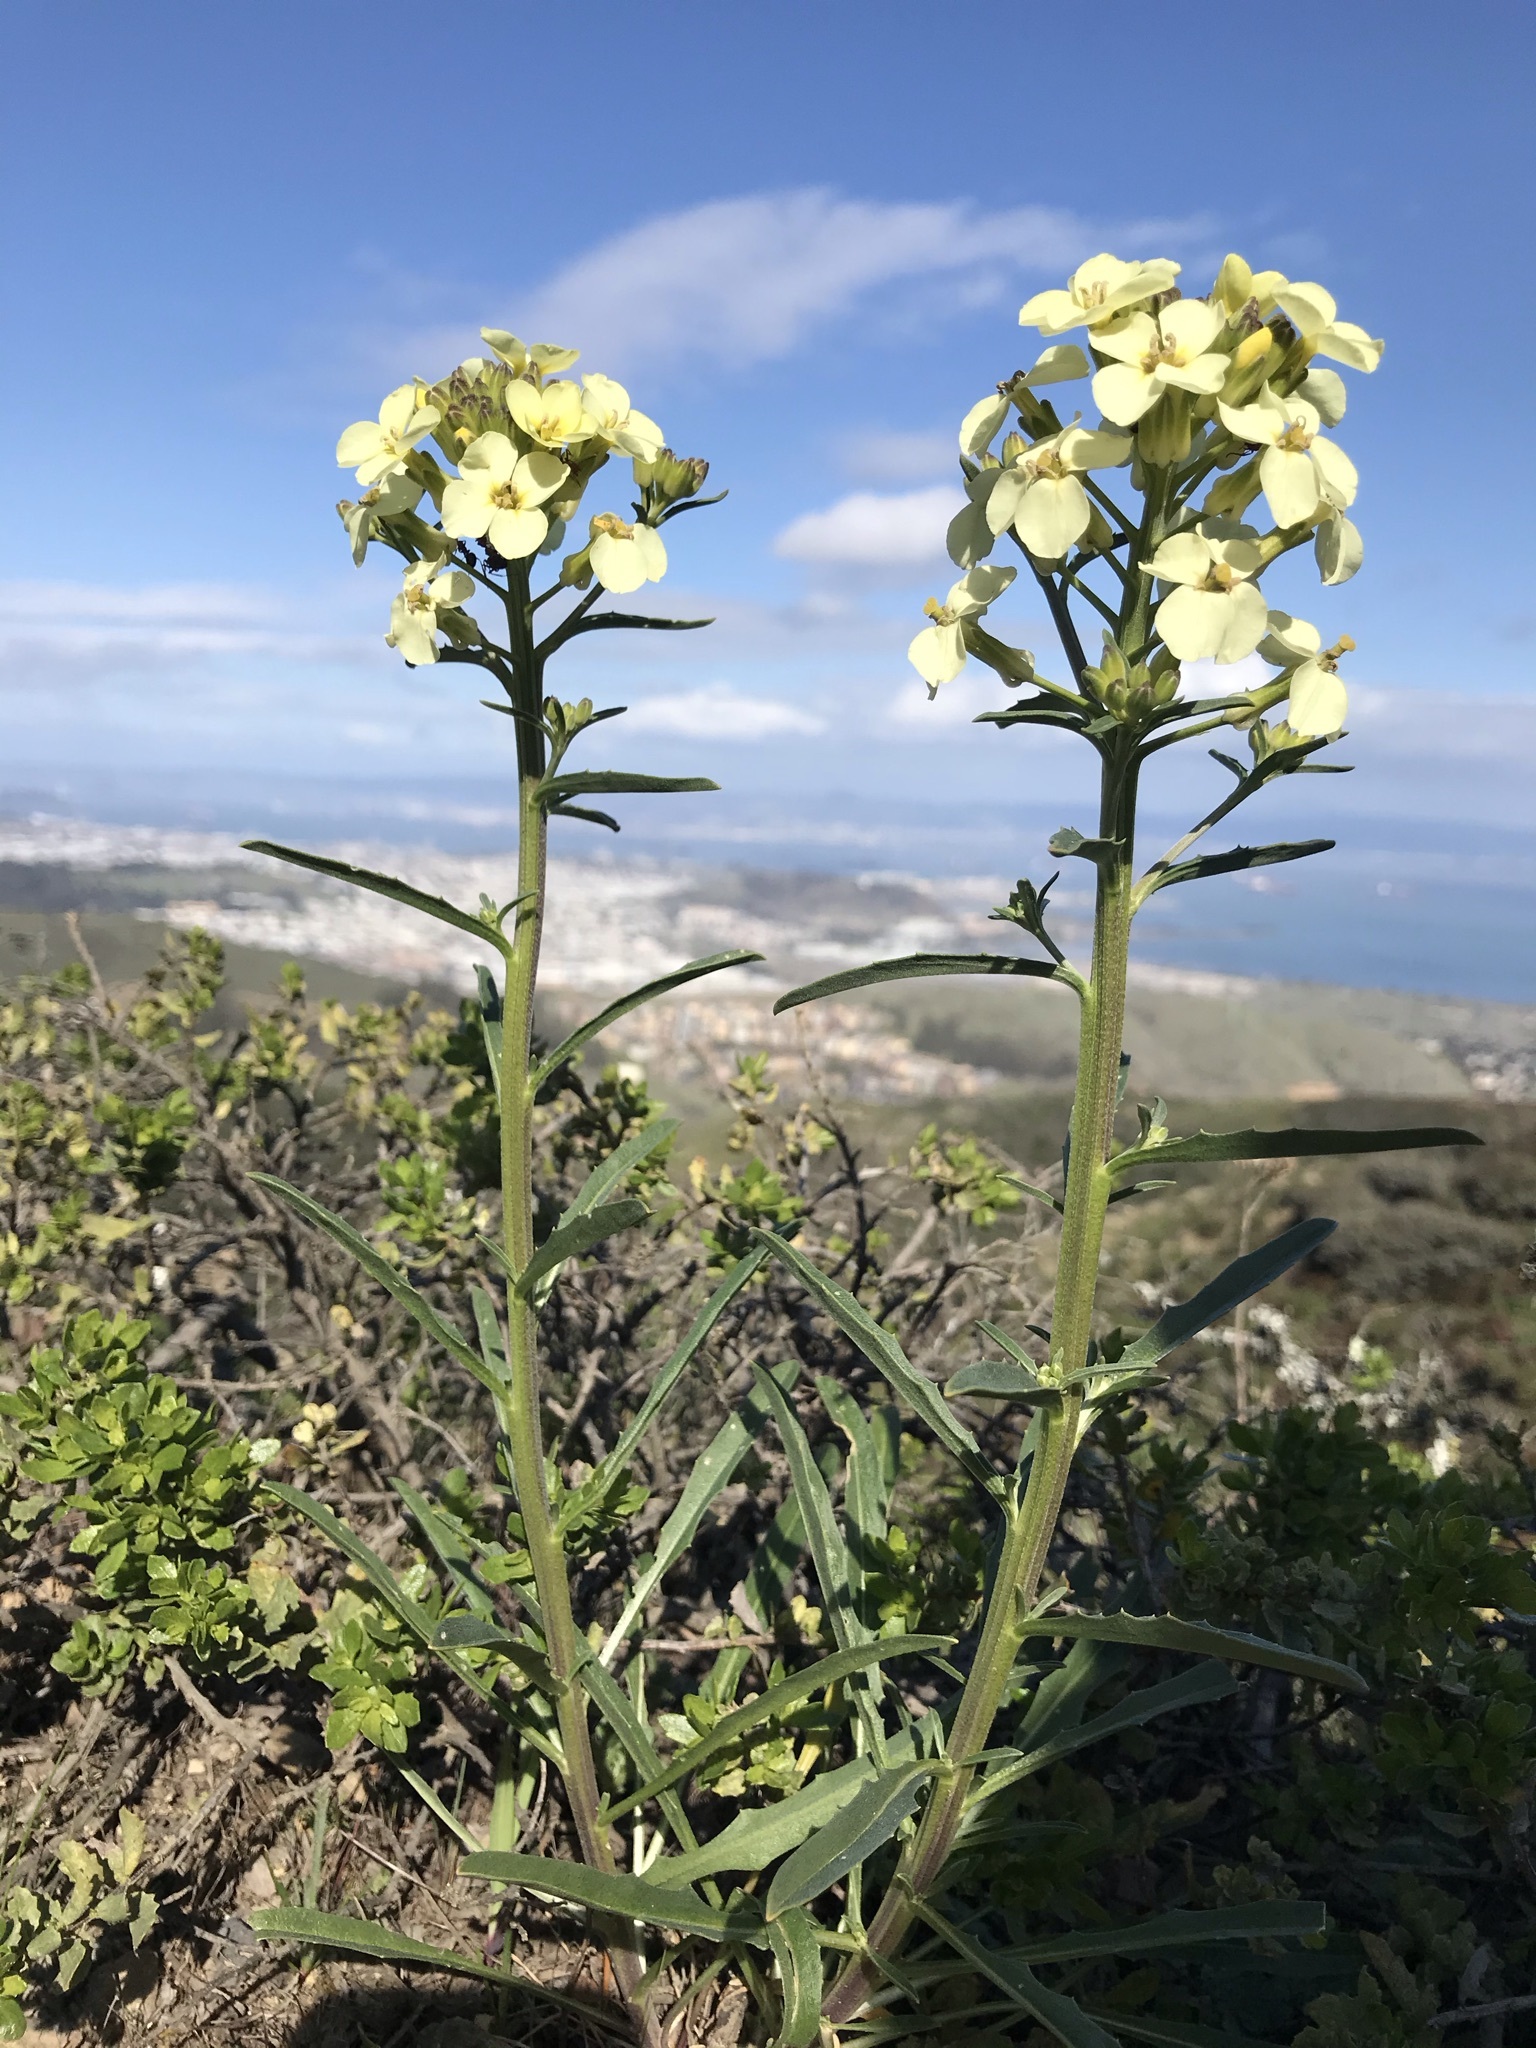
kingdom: Plantae
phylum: Tracheophyta
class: Magnoliopsida
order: Brassicales
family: Brassicaceae
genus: Erysimum
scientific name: Erysimum franciscanum
